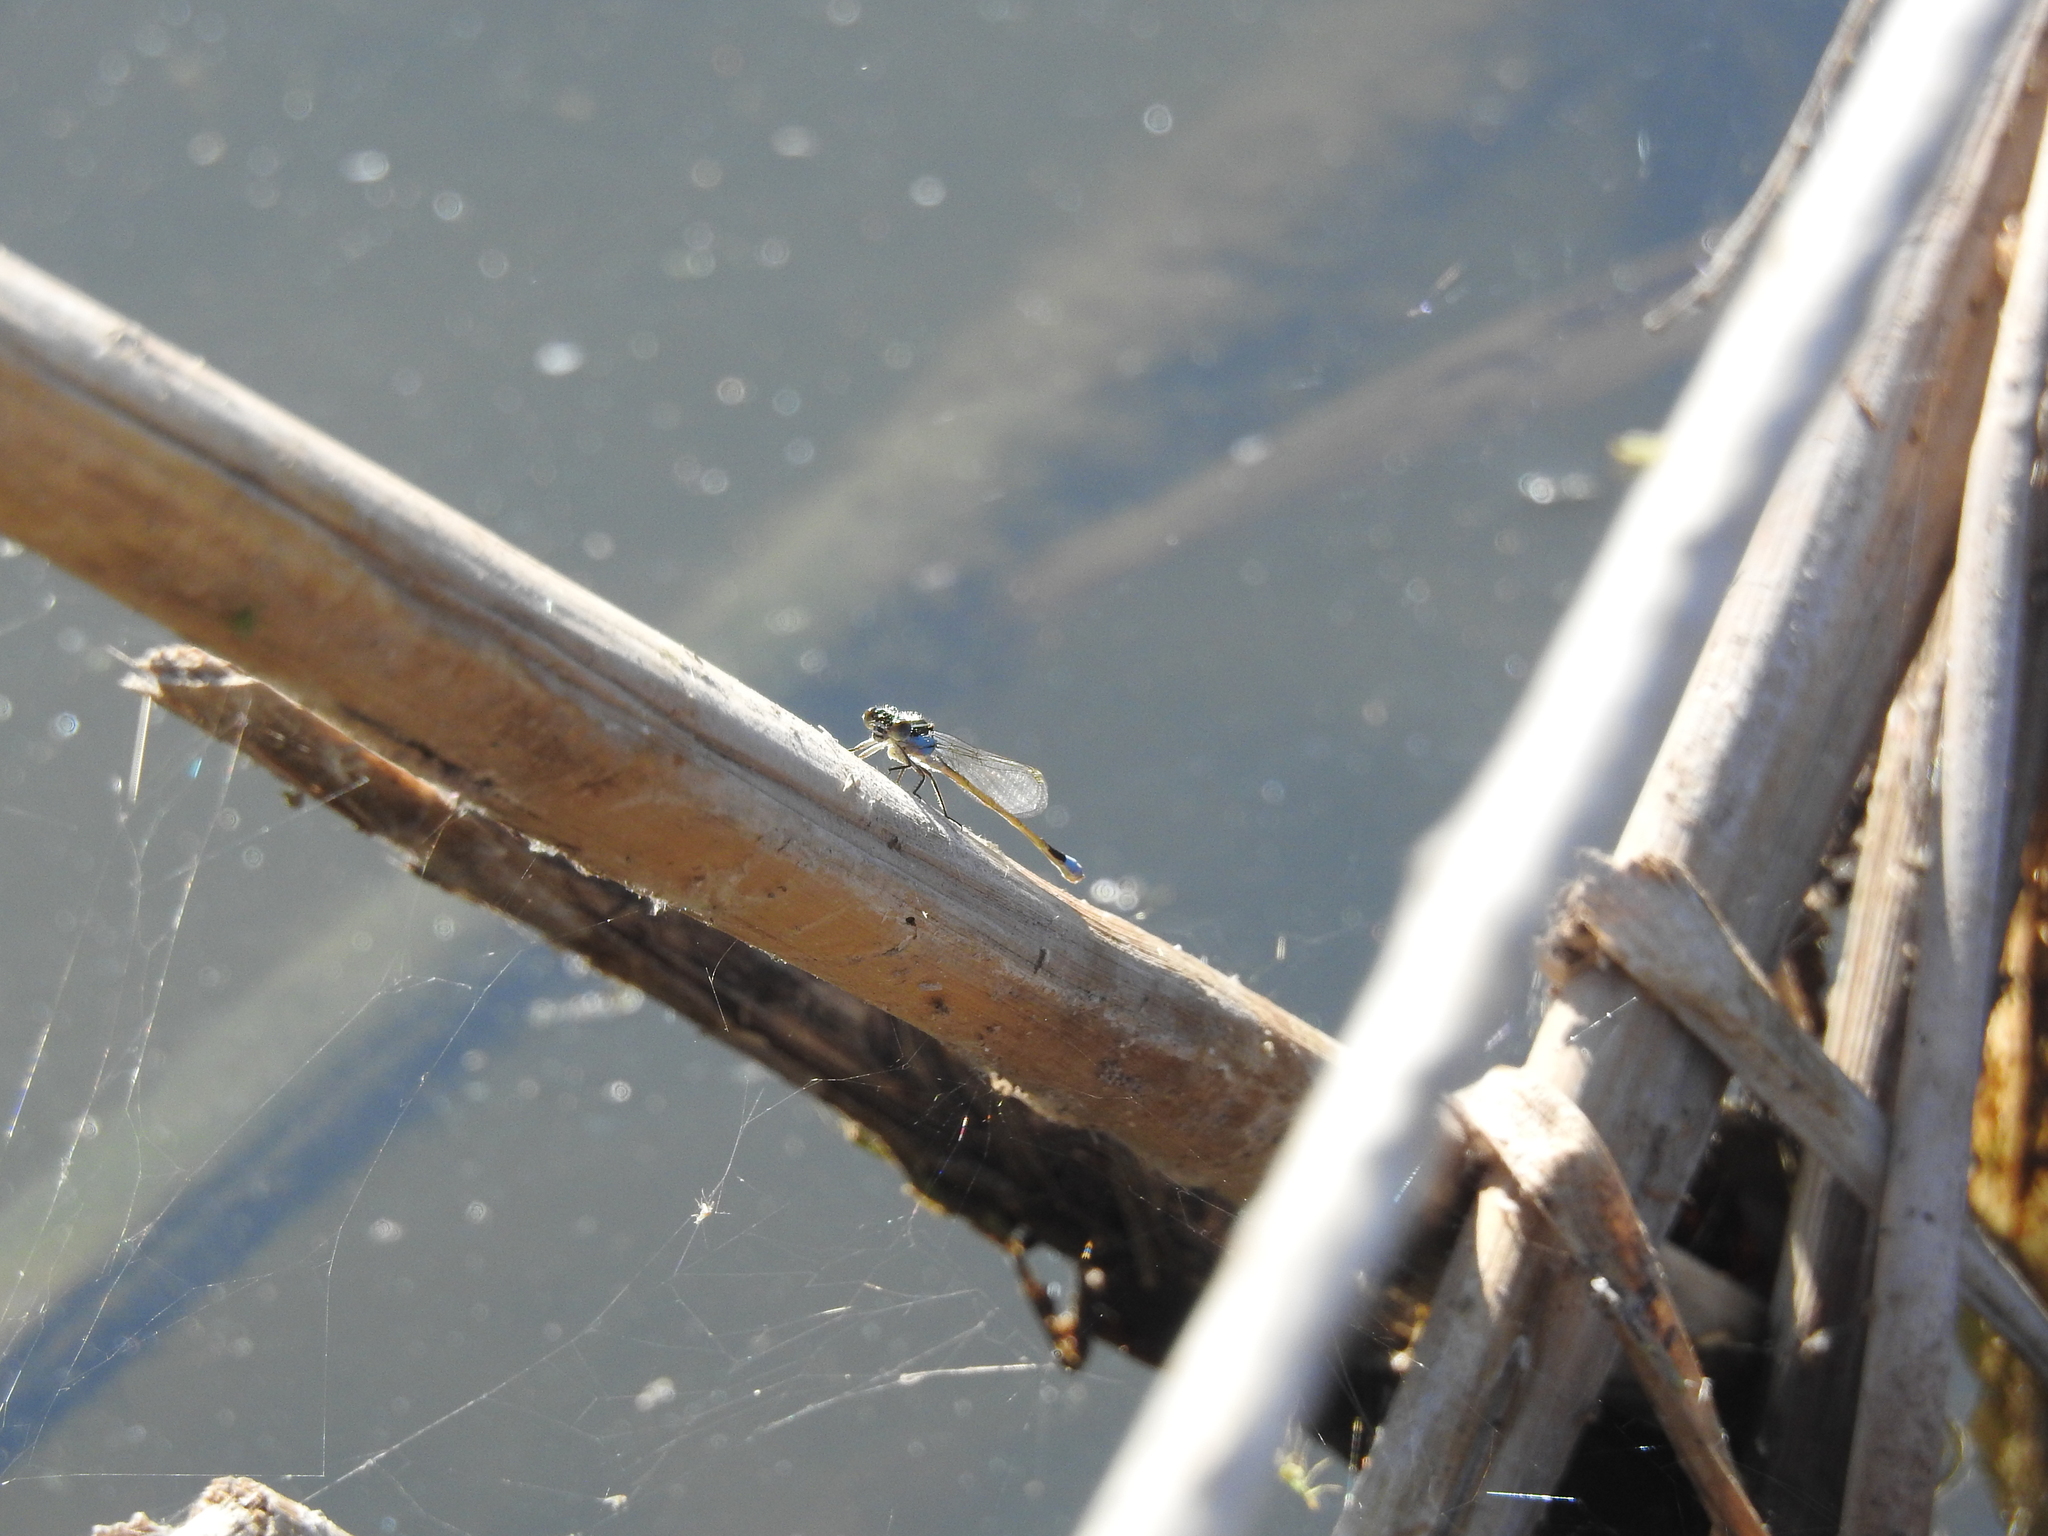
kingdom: Animalia
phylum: Arthropoda
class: Insecta
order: Odonata
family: Coenagrionidae
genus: Ischnura
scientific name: Ischnura ramburii
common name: Rambur's forktail
